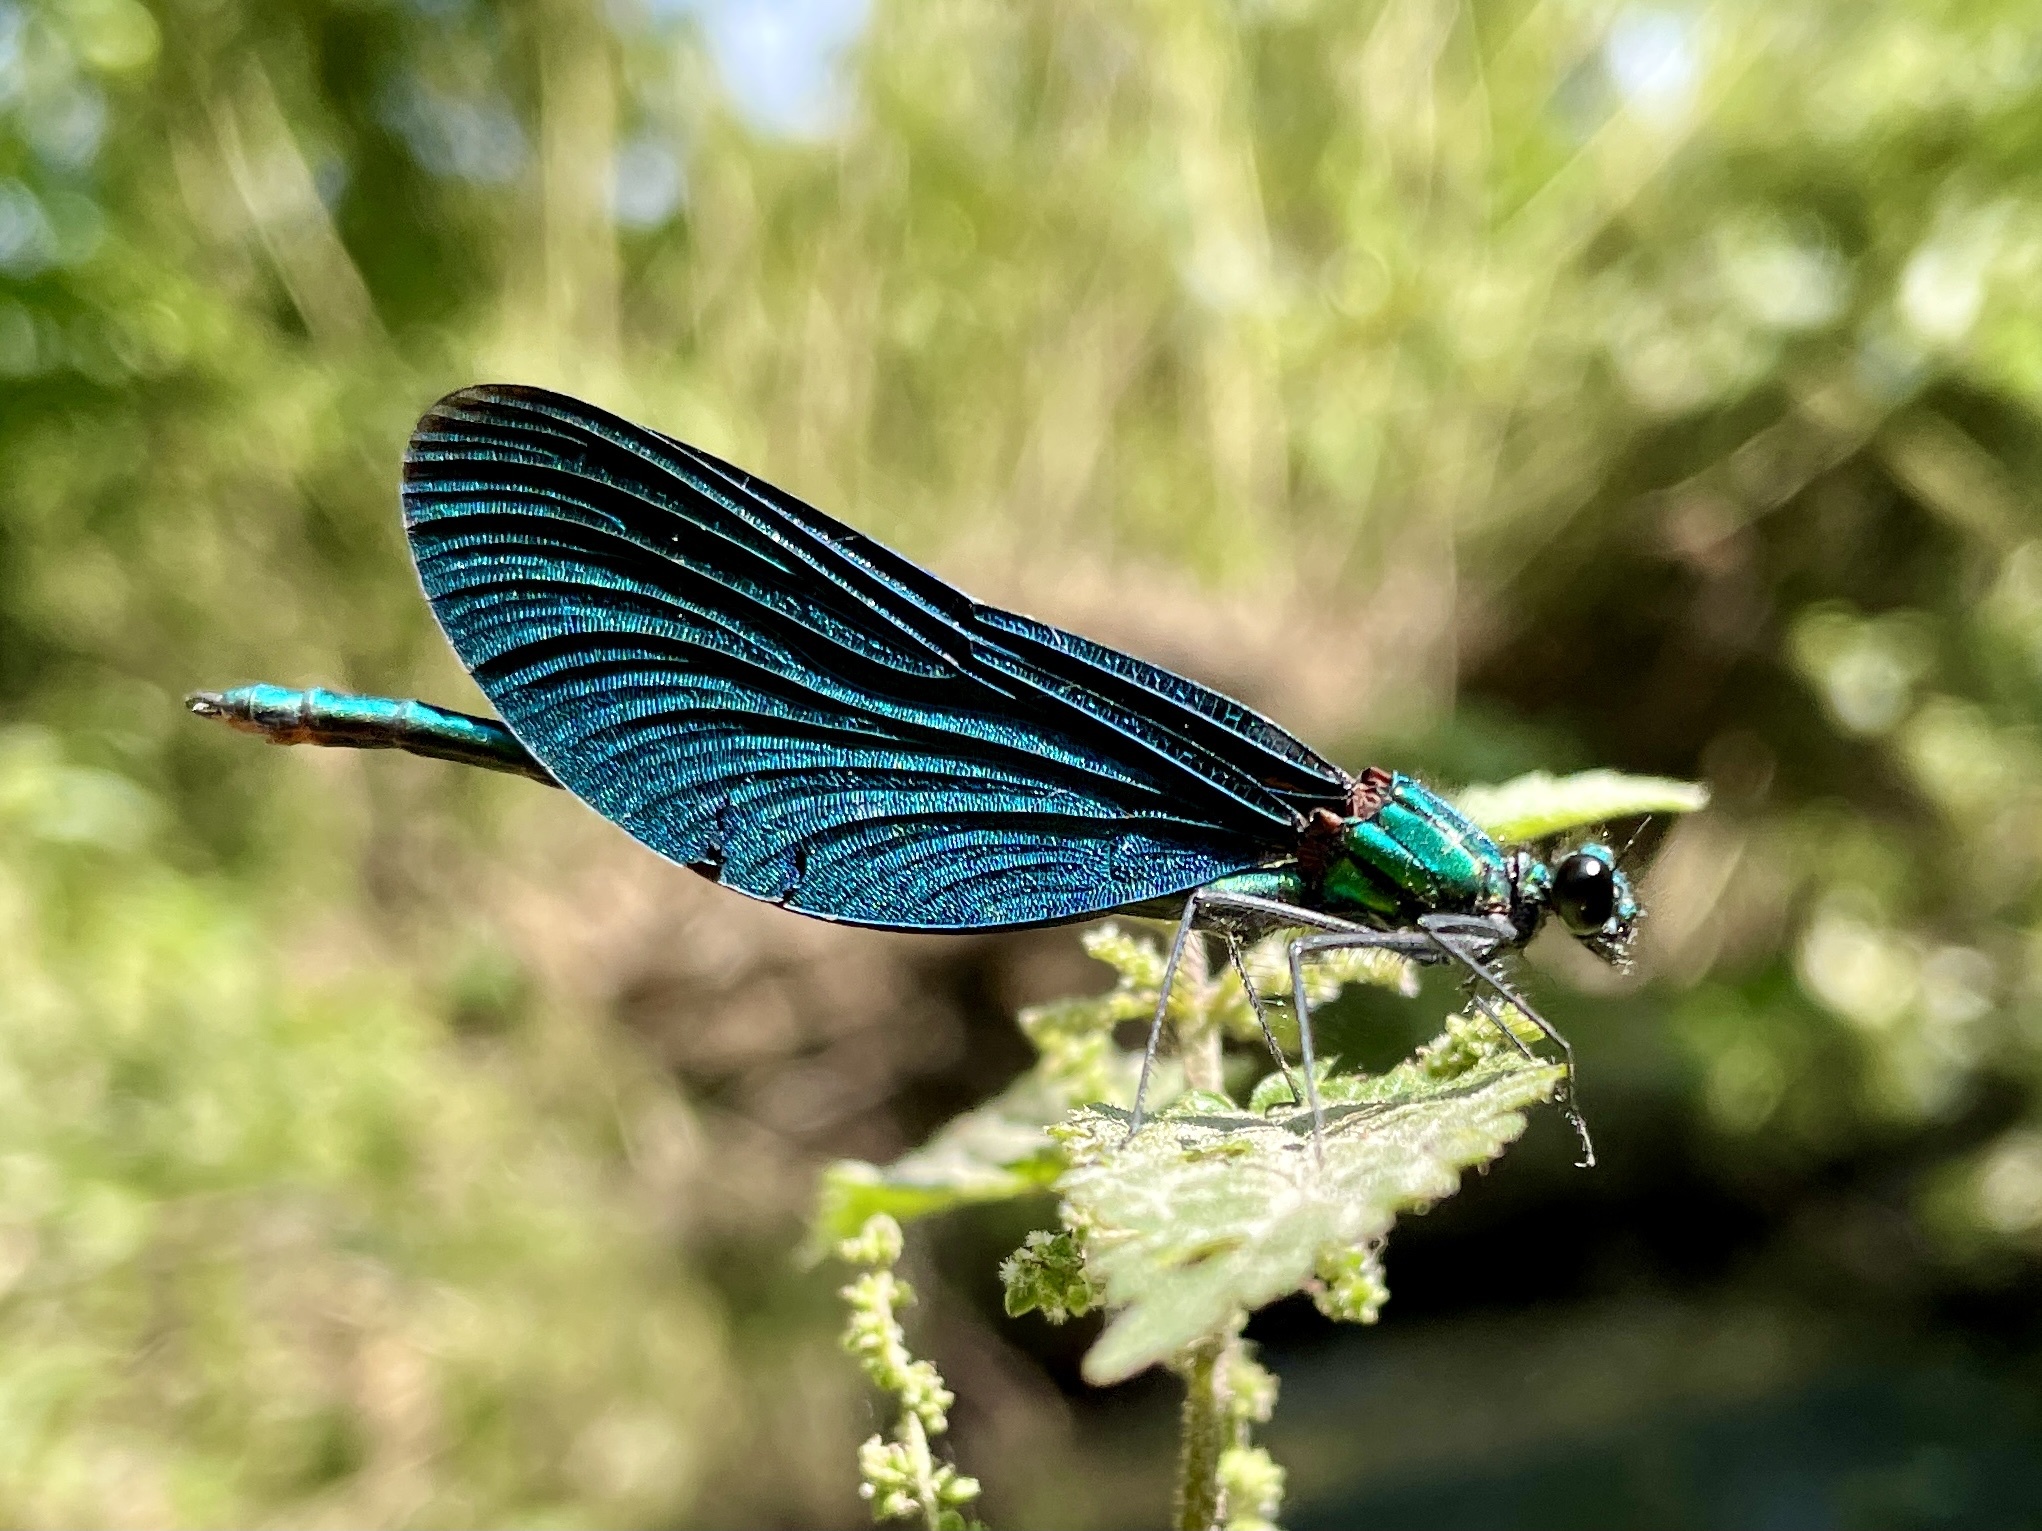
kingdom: Animalia
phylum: Arthropoda
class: Insecta
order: Odonata
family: Calopterygidae
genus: Calopteryx
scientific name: Calopteryx virgo
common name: Beautiful demoiselle
